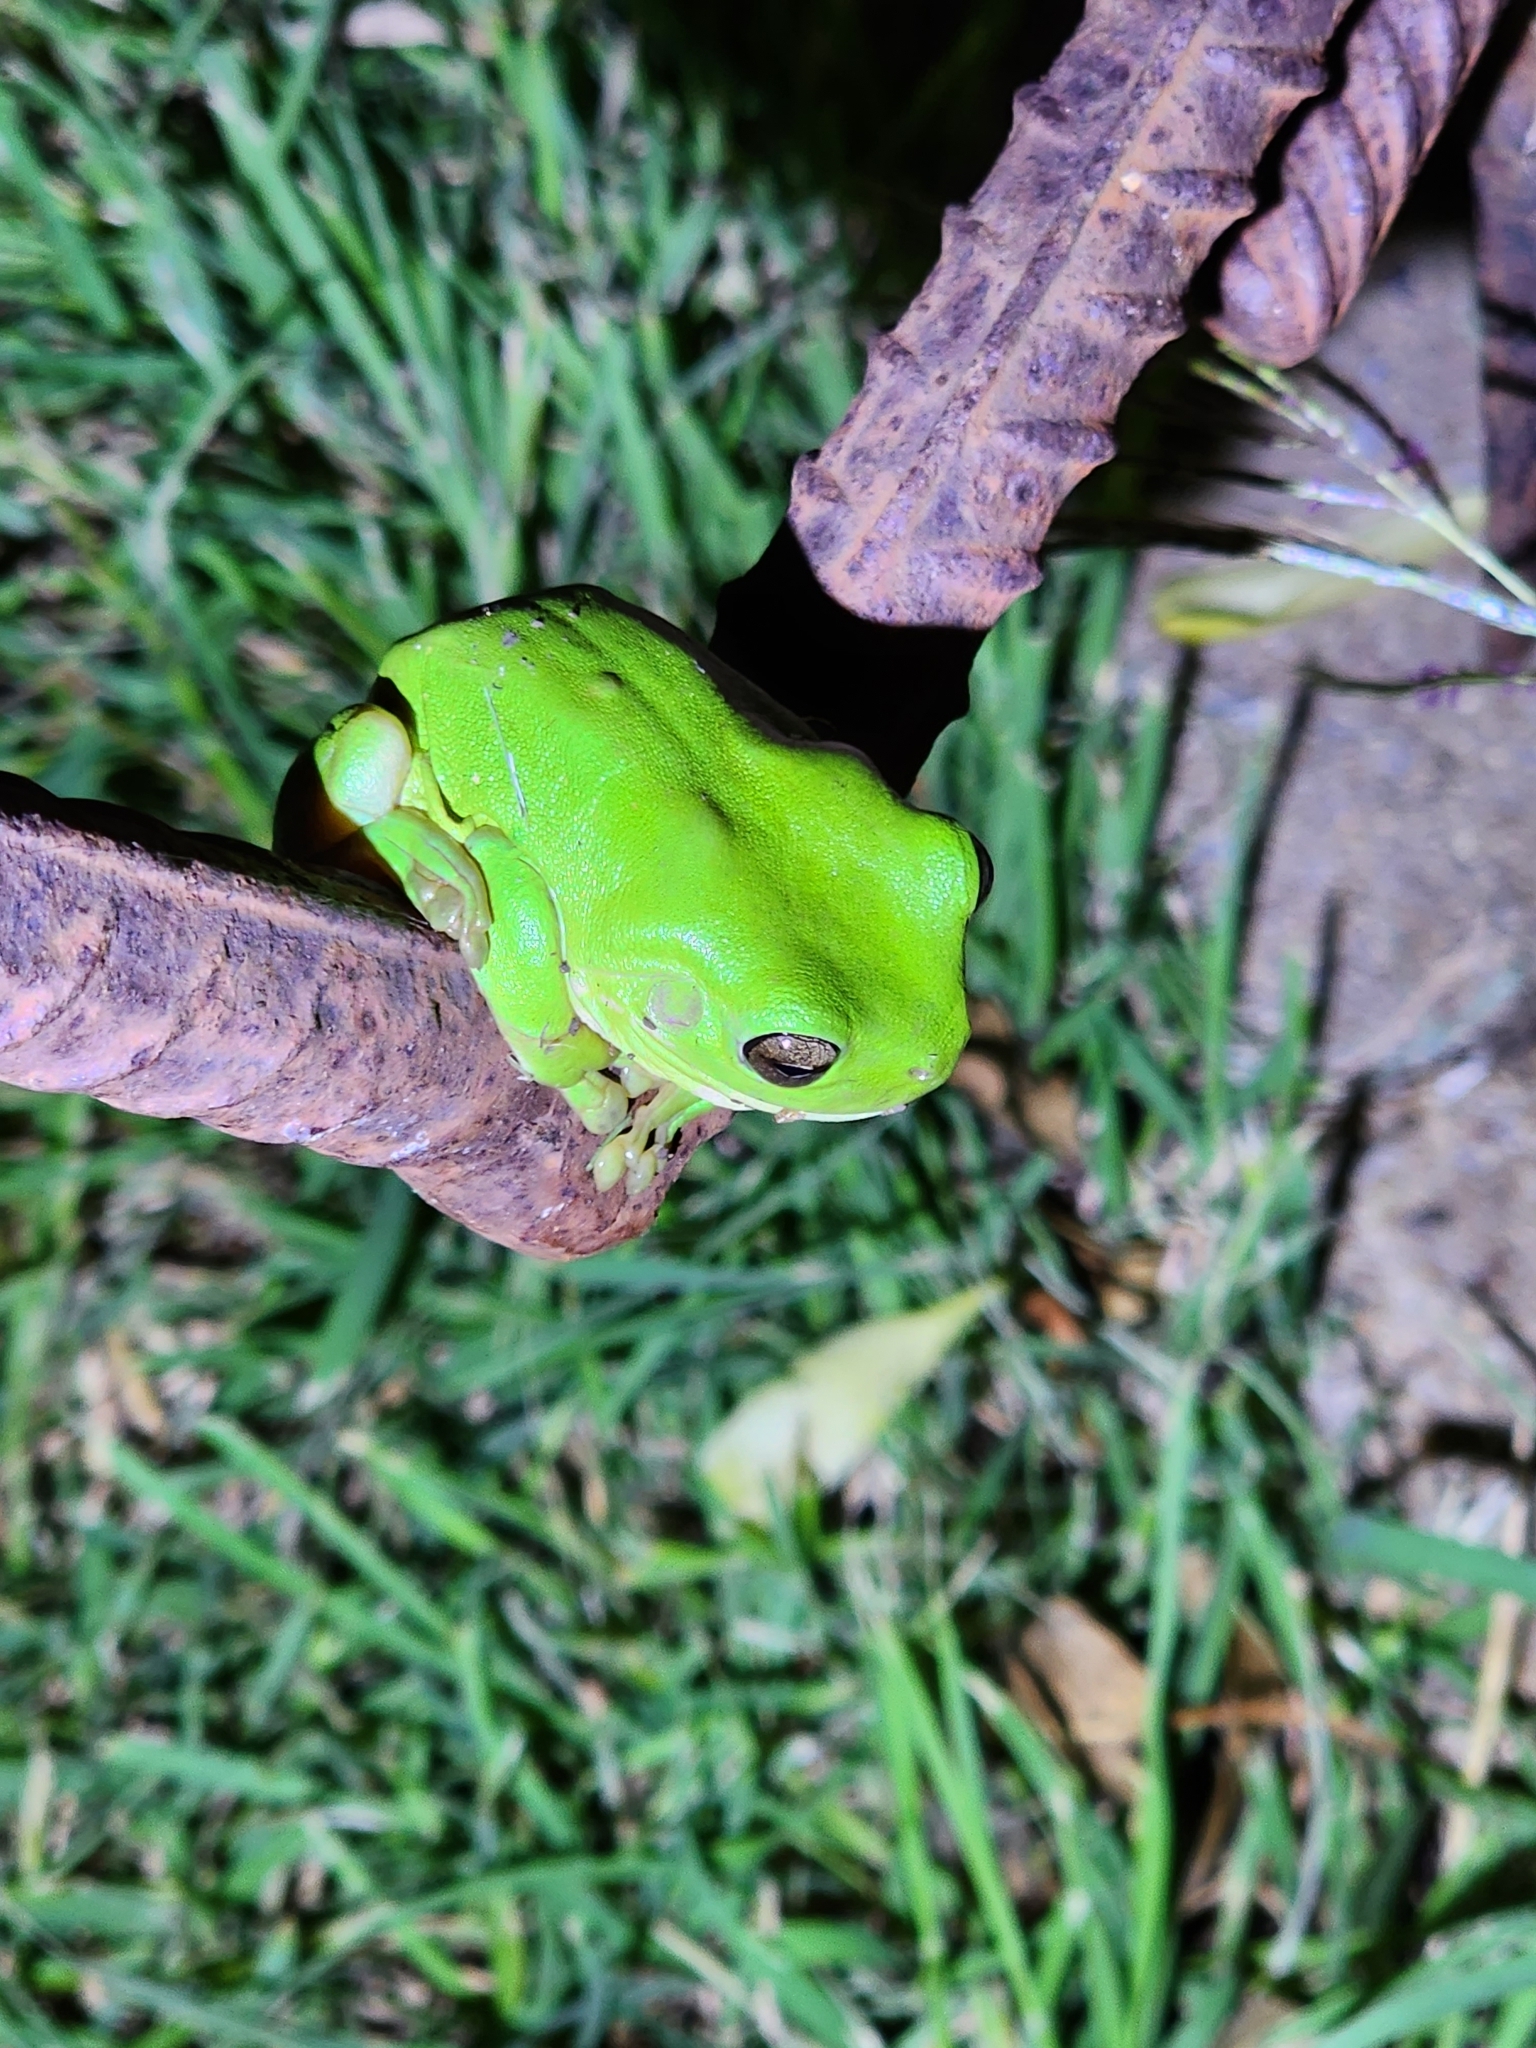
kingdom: Animalia
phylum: Chordata
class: Amphibia
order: Anura
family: Pelodryadidae
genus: Ranoidea
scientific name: Ranoidea caerulea
